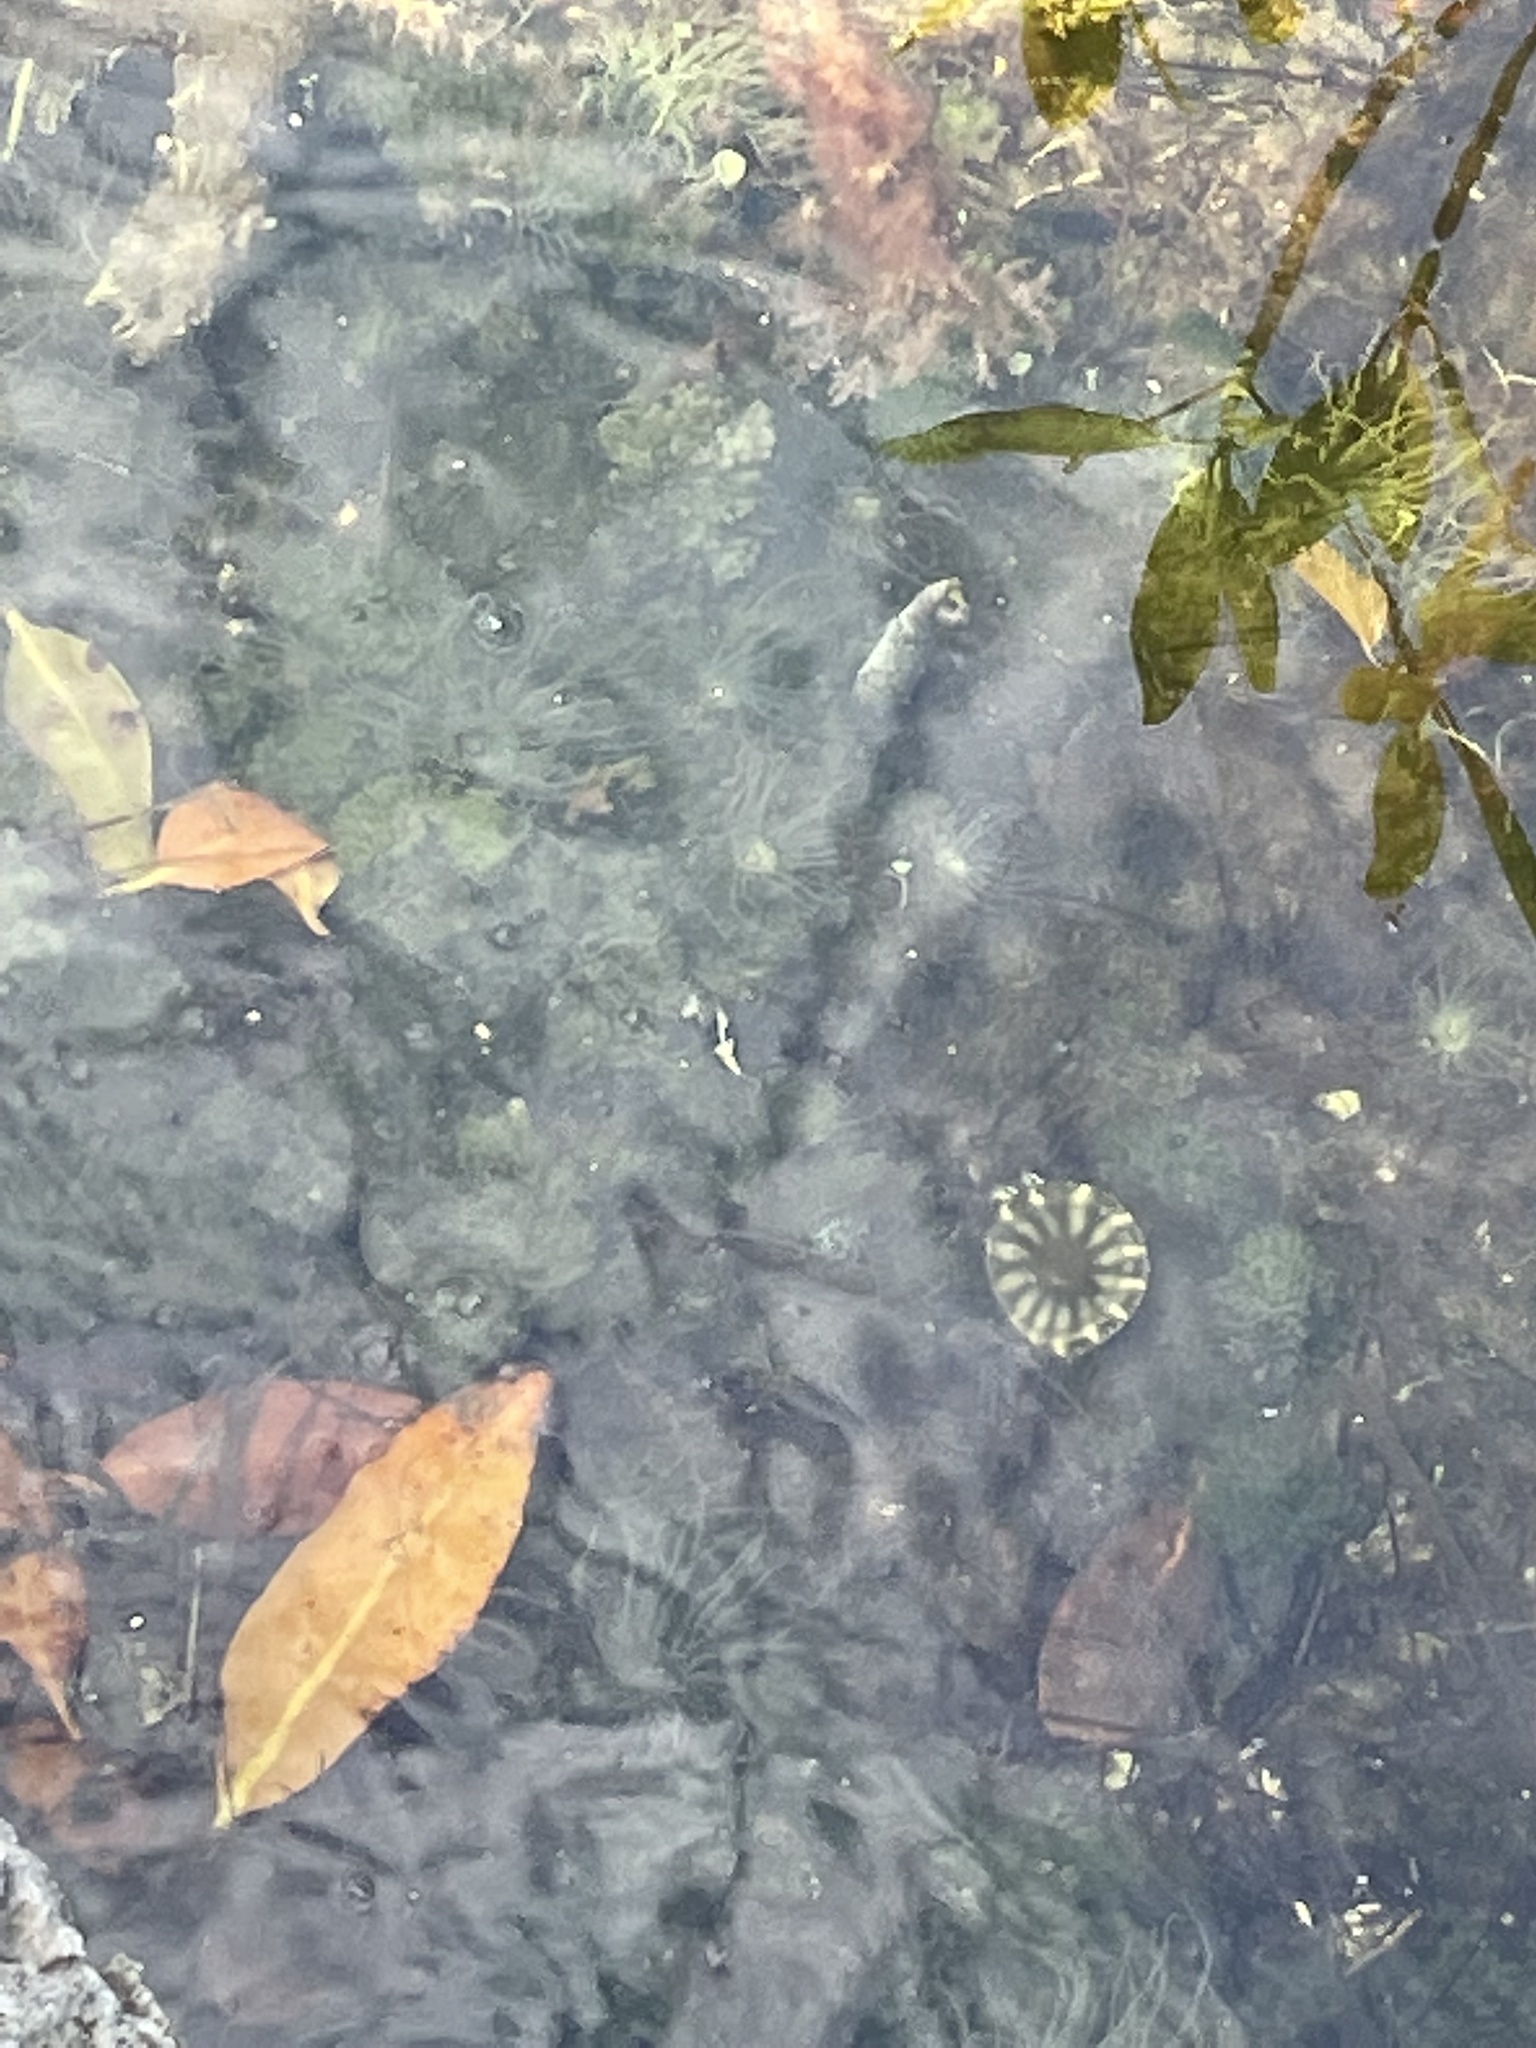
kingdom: Animalia
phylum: Cnidaria
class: Scyphozoa
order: Rhizostomeae
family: Cassiopeidae
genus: Cassiopea
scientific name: Cassiopea andromeda
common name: Upside-down jellyfish
